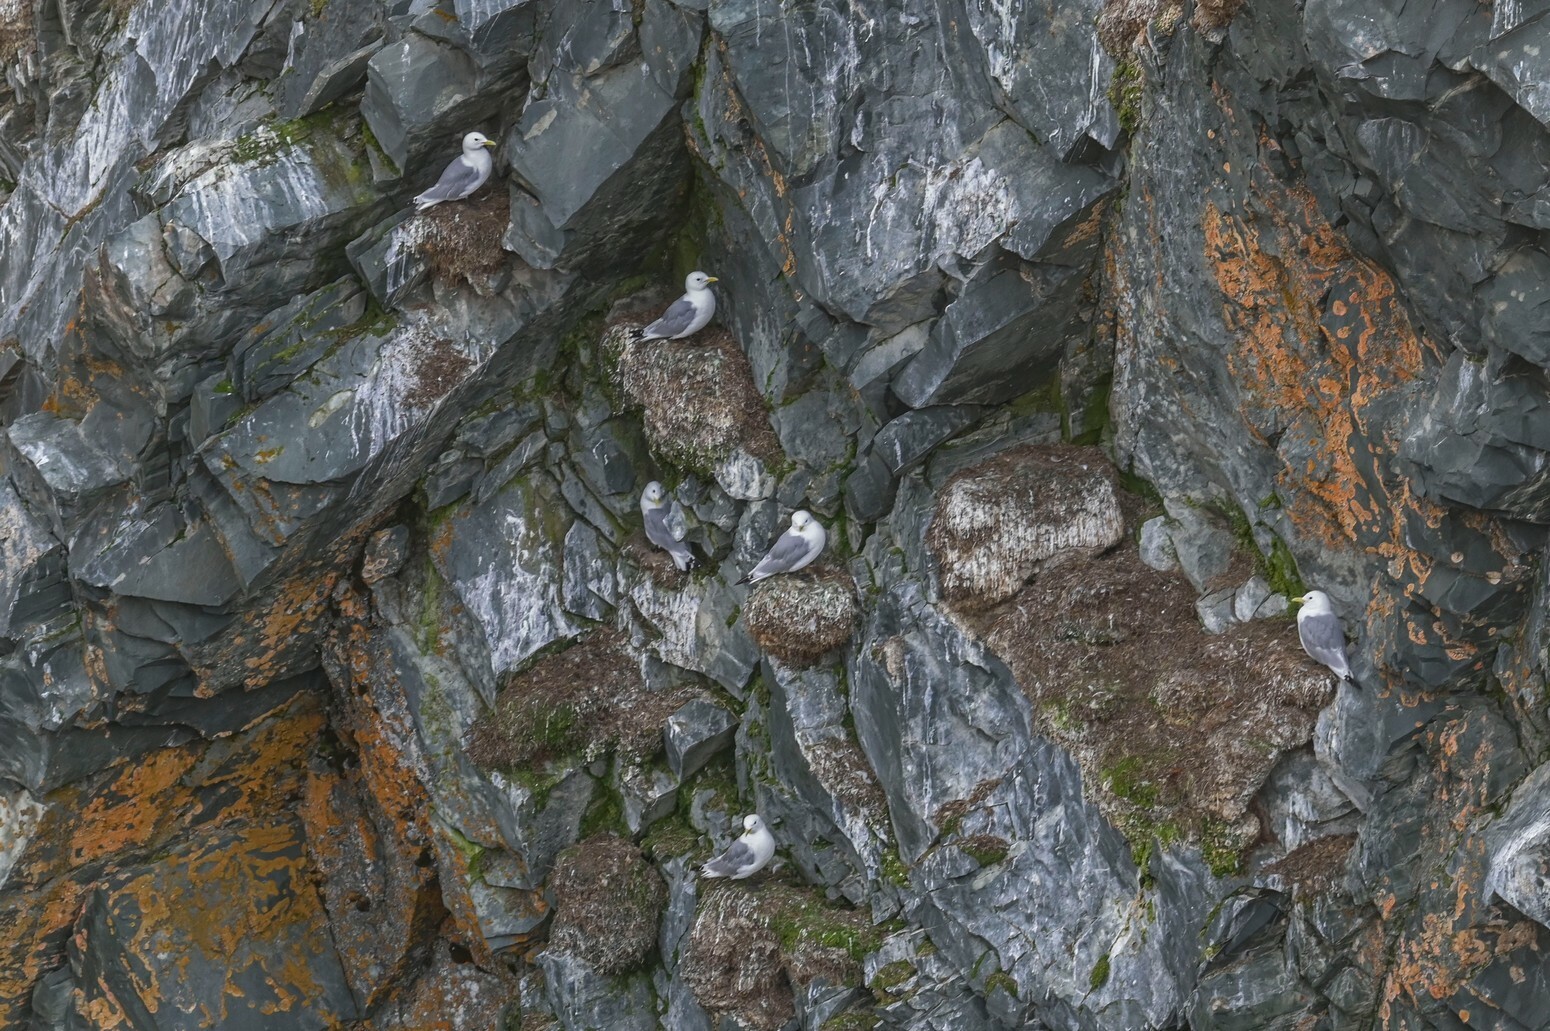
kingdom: Animalia
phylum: Chordata
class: Aves
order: Charadriiformes
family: Laridae
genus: Rissa
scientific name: Rissa tridactyla
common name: Black-legged kittiwake
